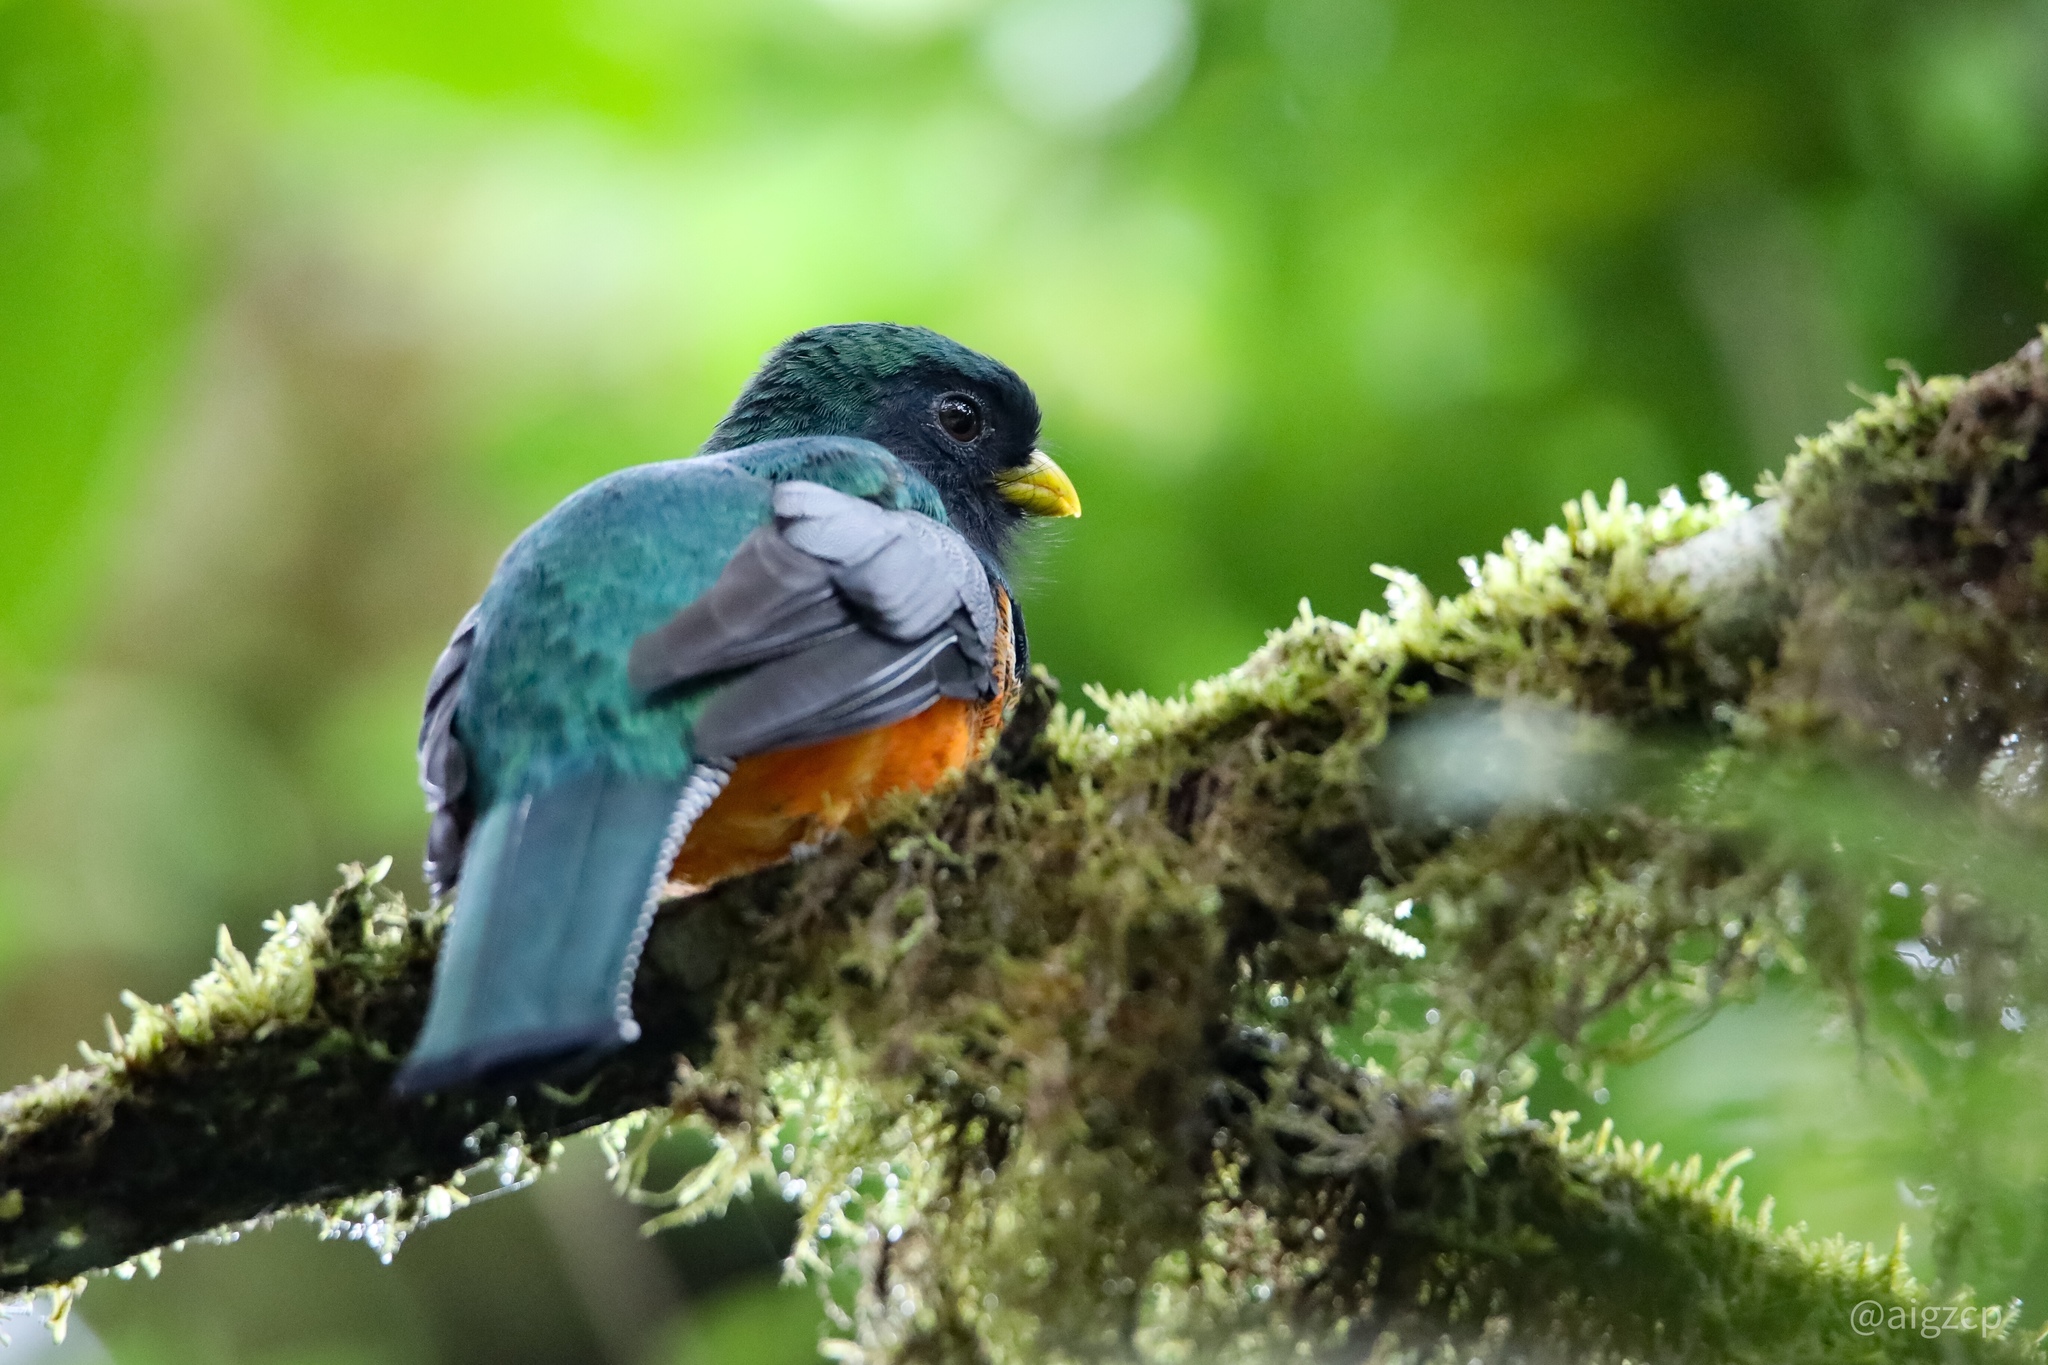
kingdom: Animalia
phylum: Chordata
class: Aves
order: Trogoniformes
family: Trogonidae
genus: Trogon
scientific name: Trogon collaris
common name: Collared trogon
